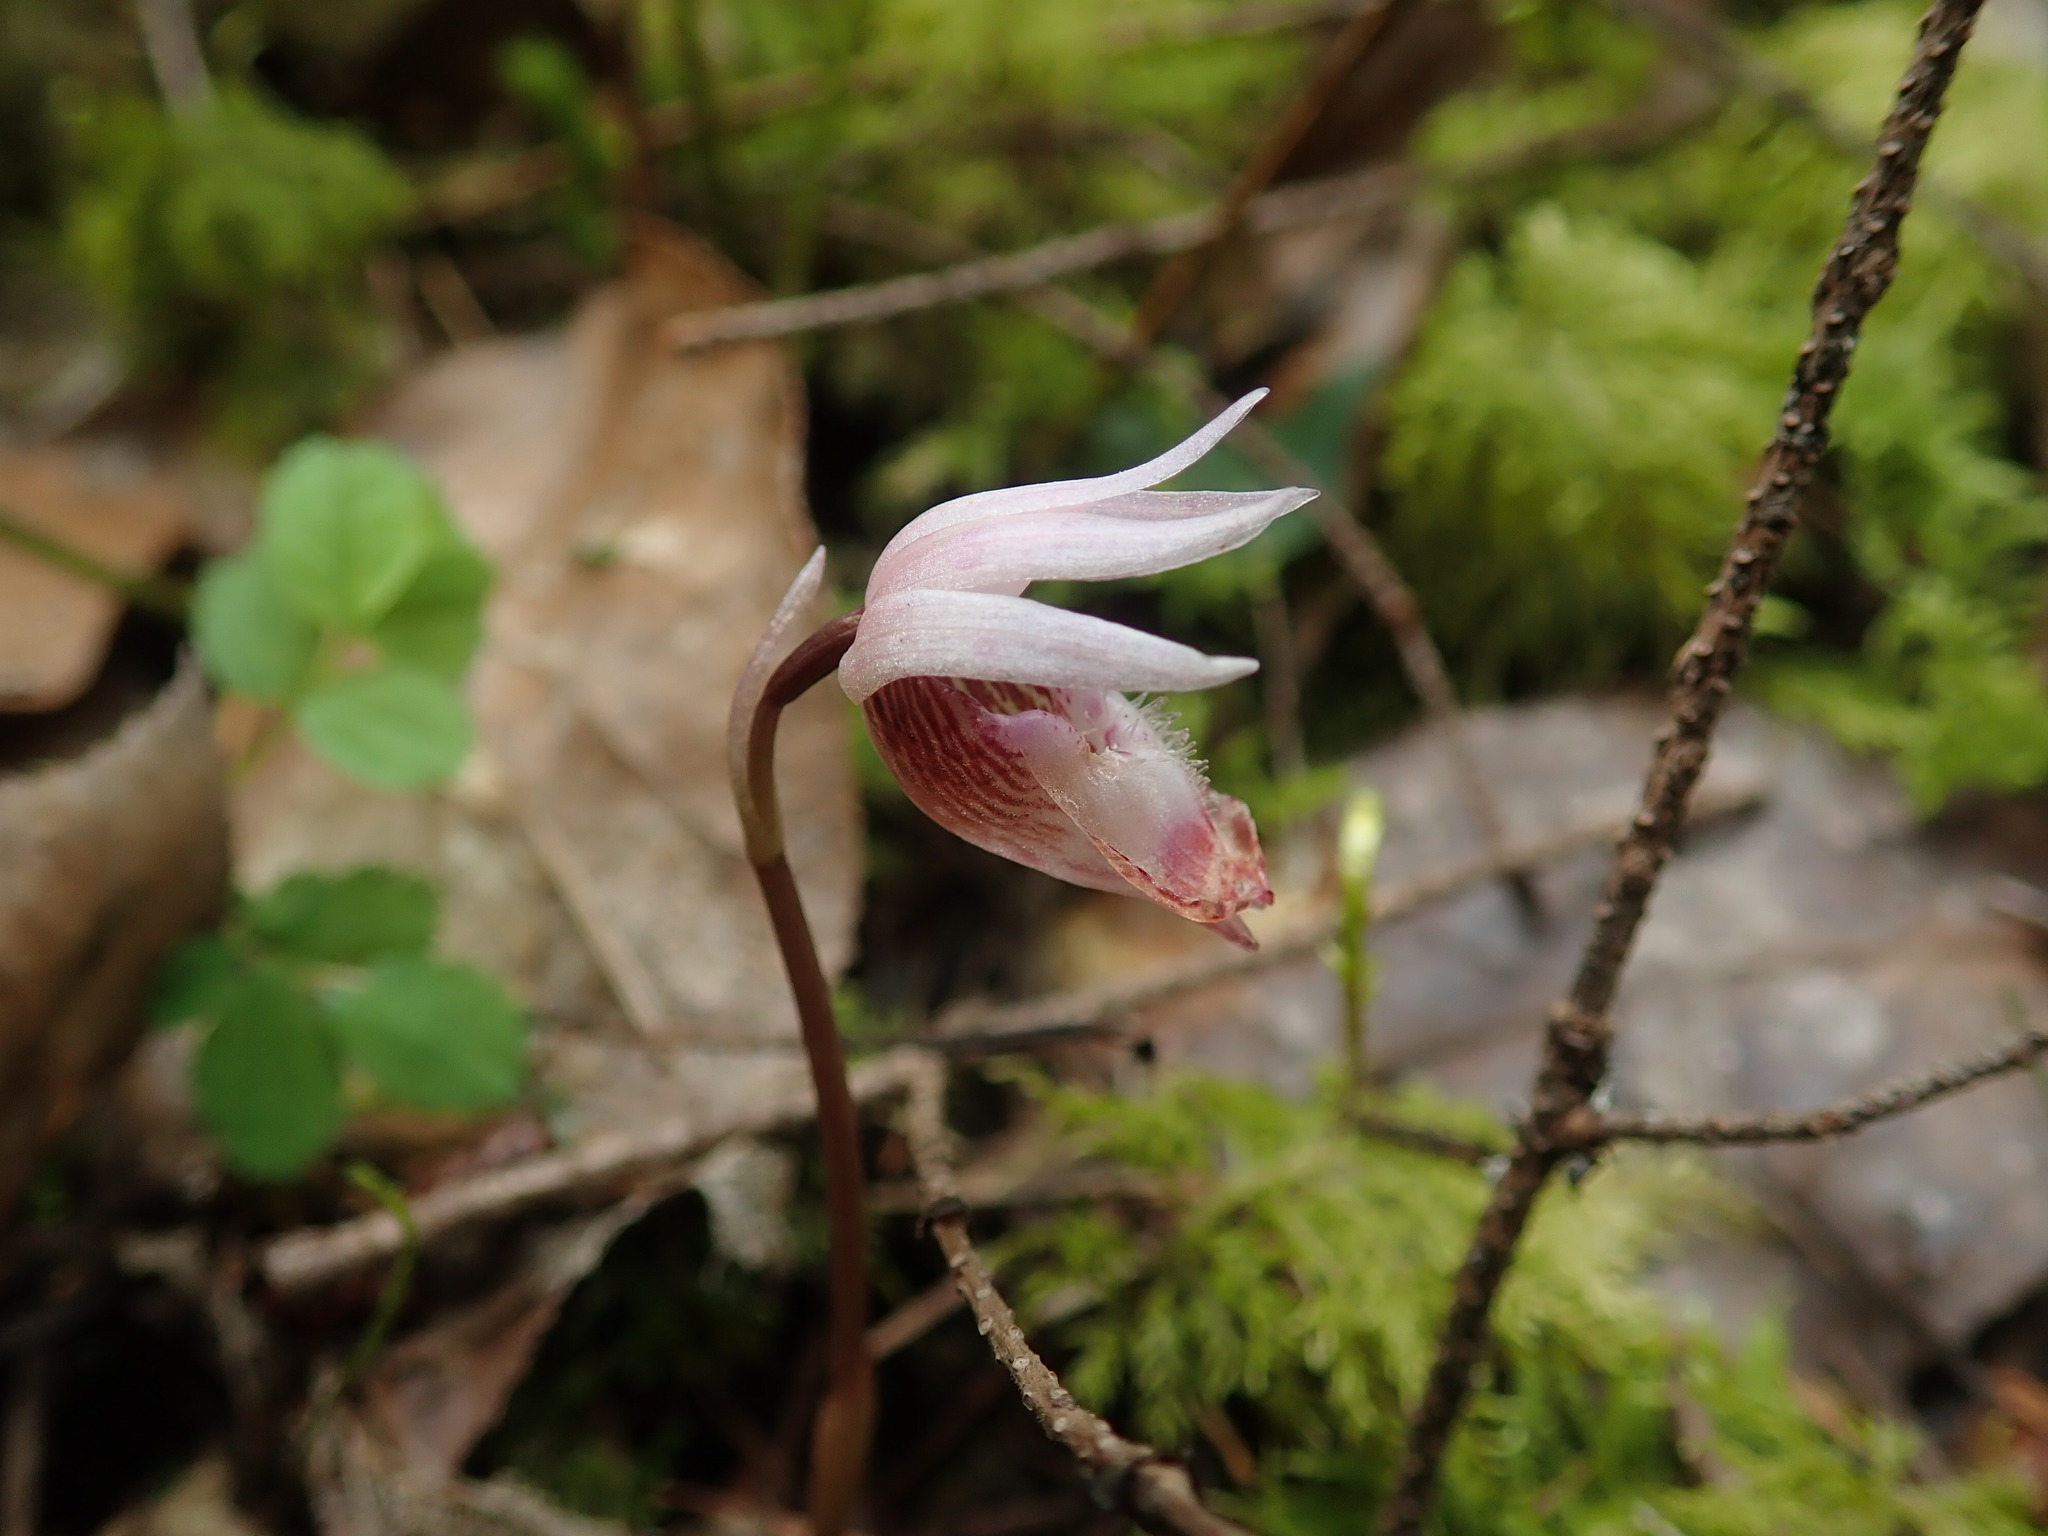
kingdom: Plantae
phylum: Tracheophyta
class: Liliopsida
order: Asparagales
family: Orchidaceae
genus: Calypso
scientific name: Calypso bulbosa
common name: Calypso
